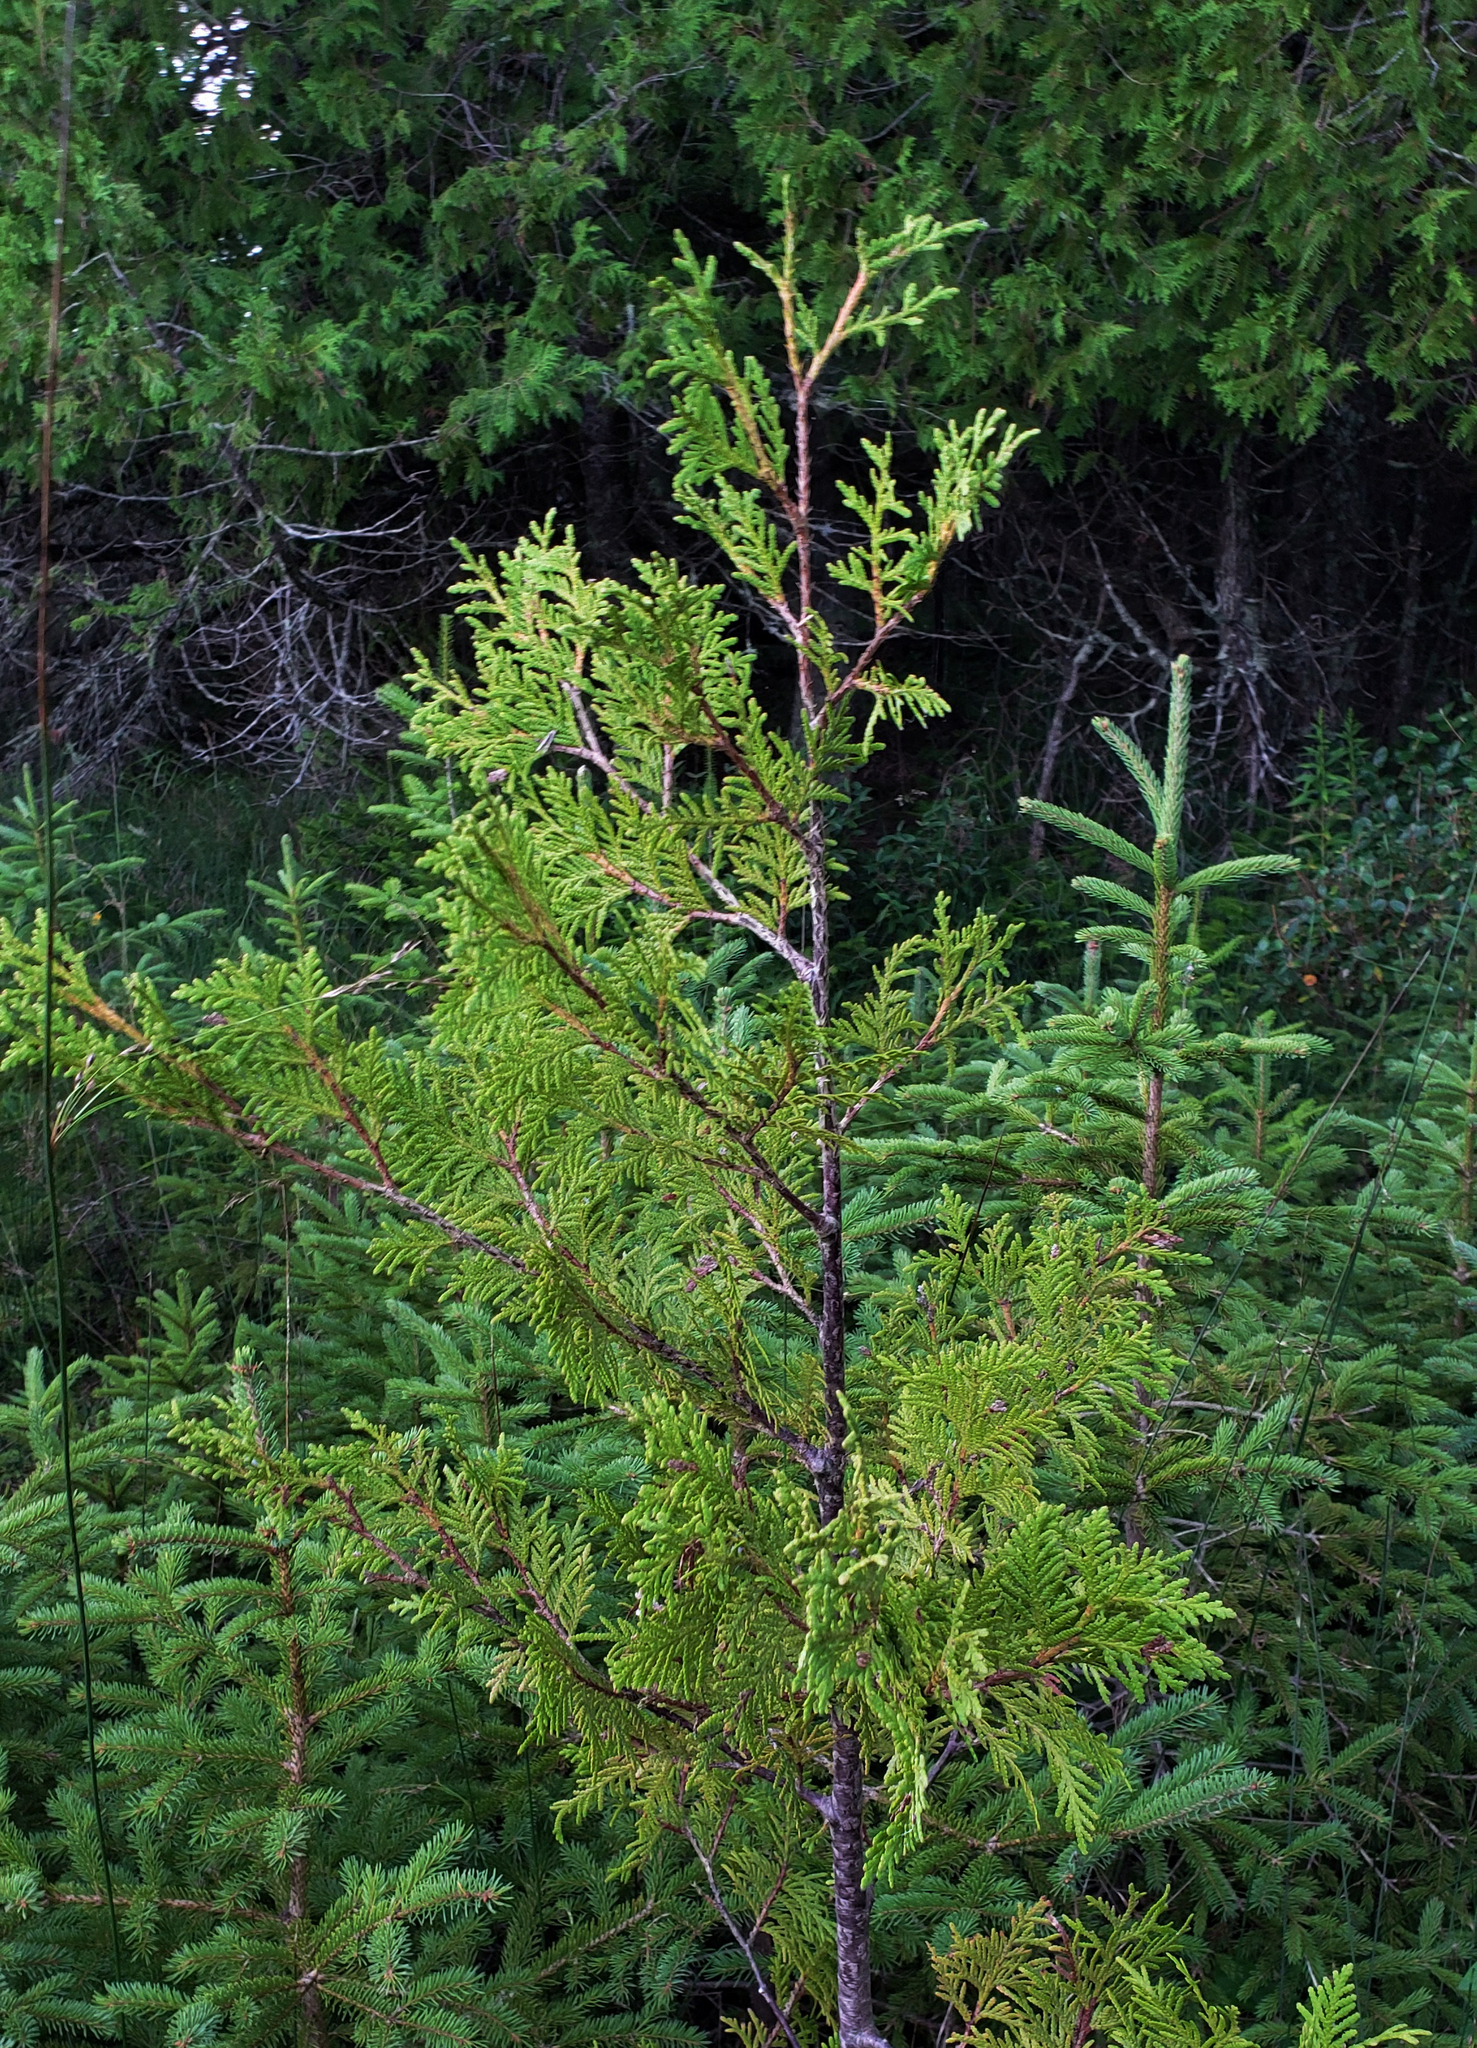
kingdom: Plantae
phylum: Tracheophyta
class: Pinopsida
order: Pinales
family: Cupressaceae
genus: Thuja
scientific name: Thuja occidentalis
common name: Northern white-cedar
